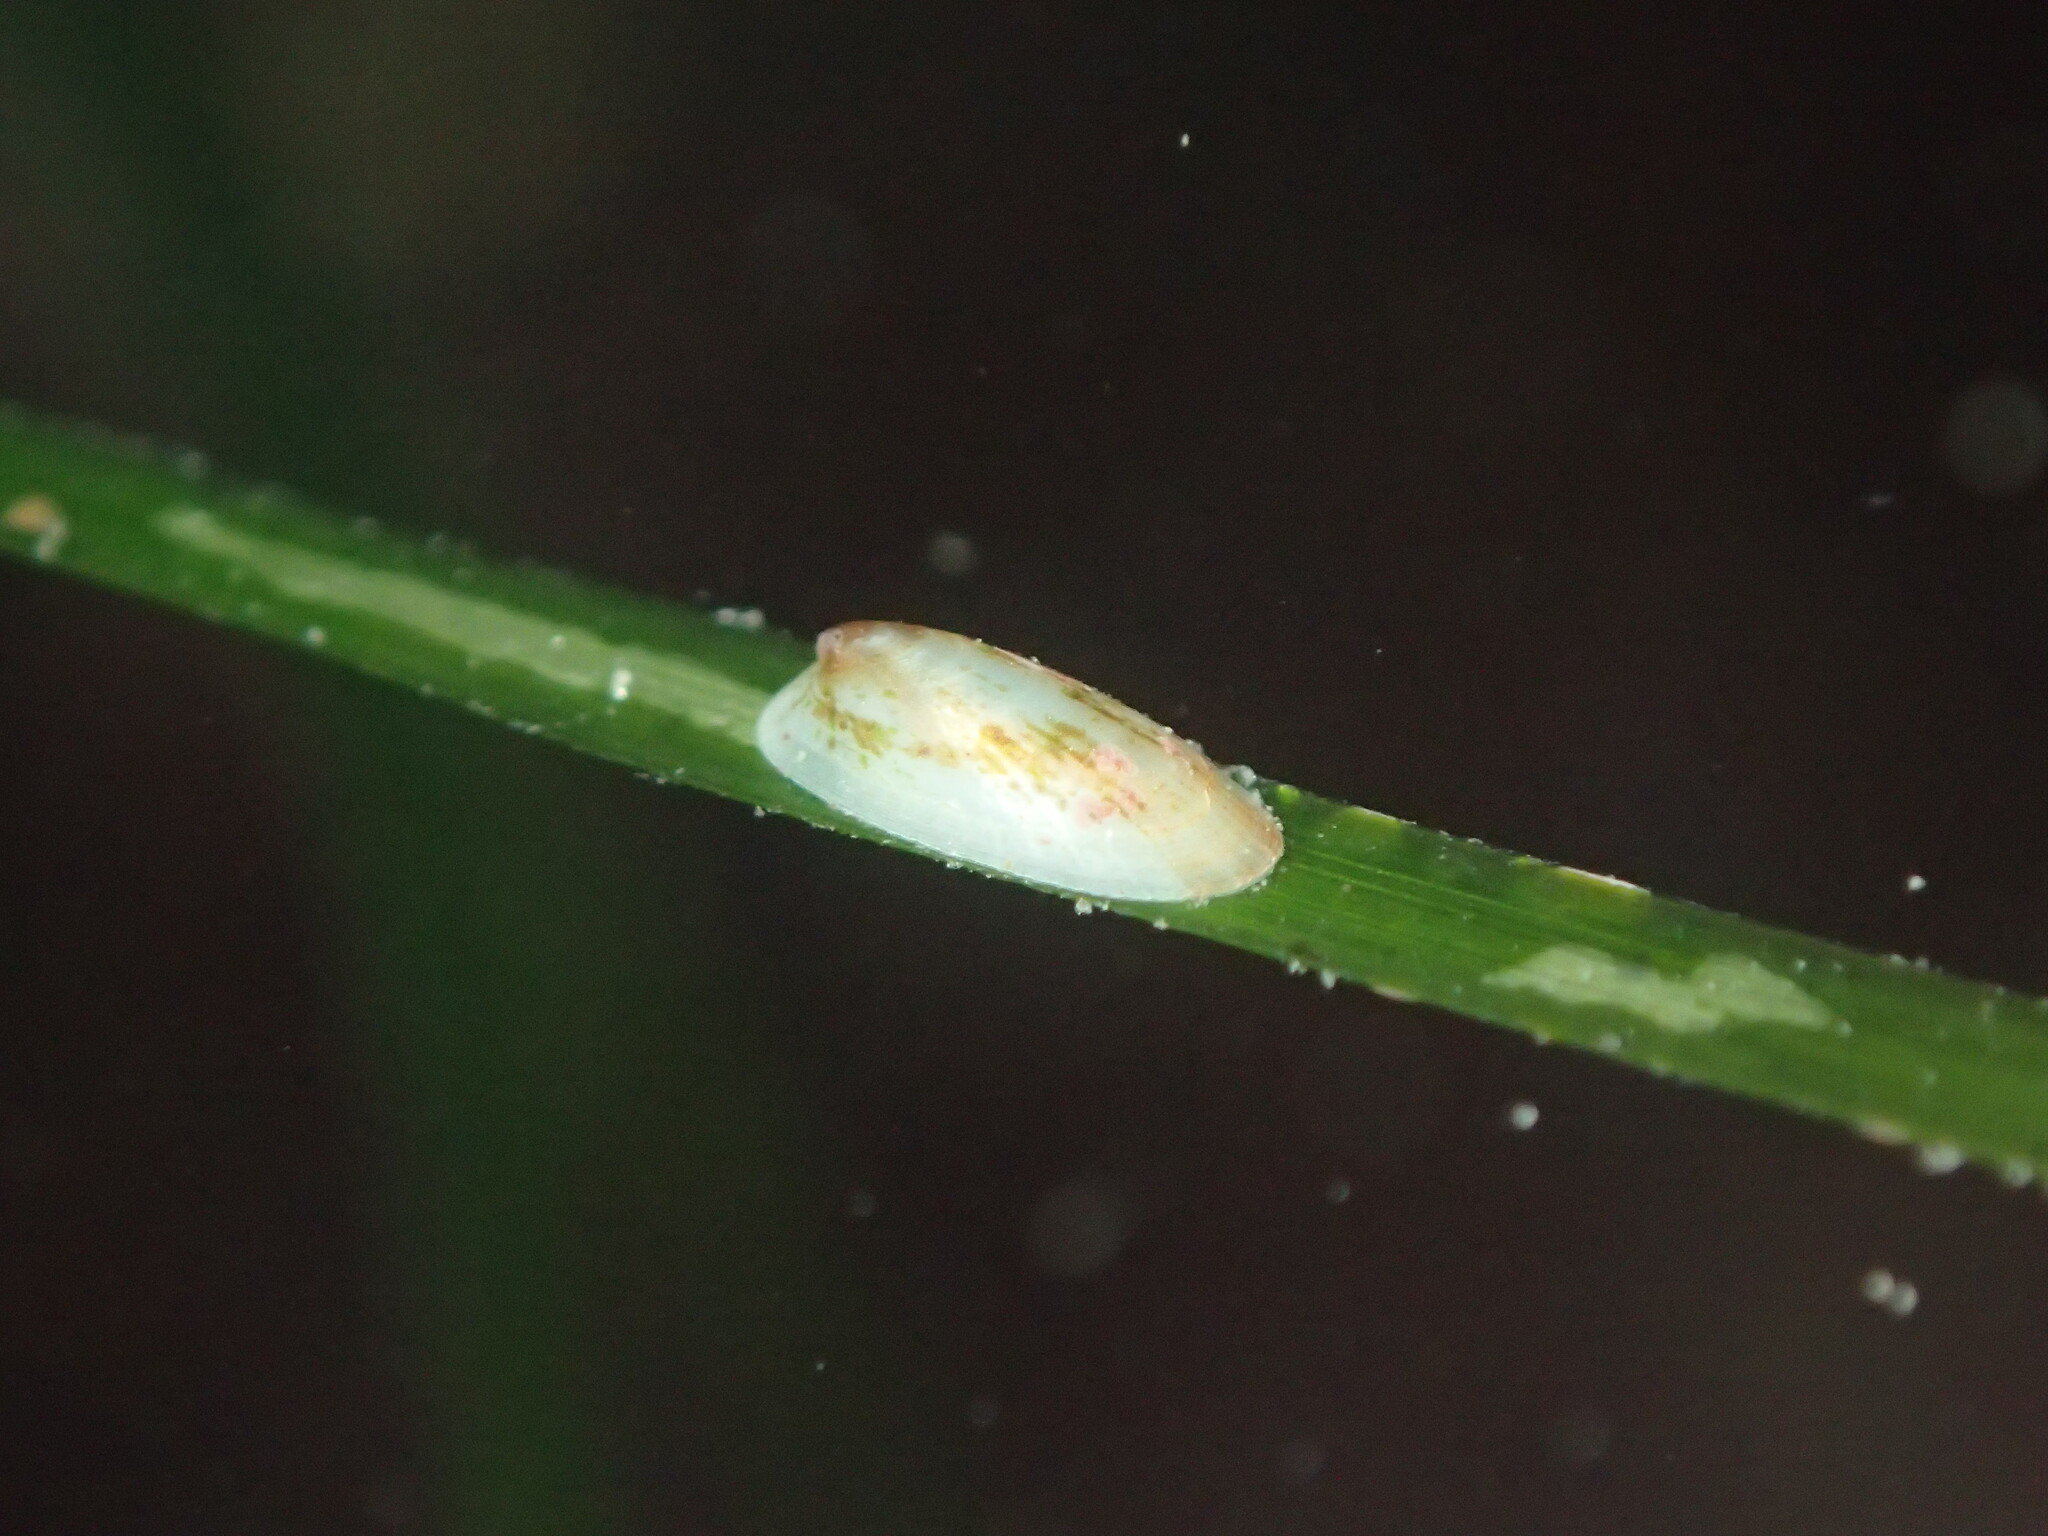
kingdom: Animalia
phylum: Mollusca
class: Gastropoda
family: Lottiidae
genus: Tectura
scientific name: Tectura paleacea
